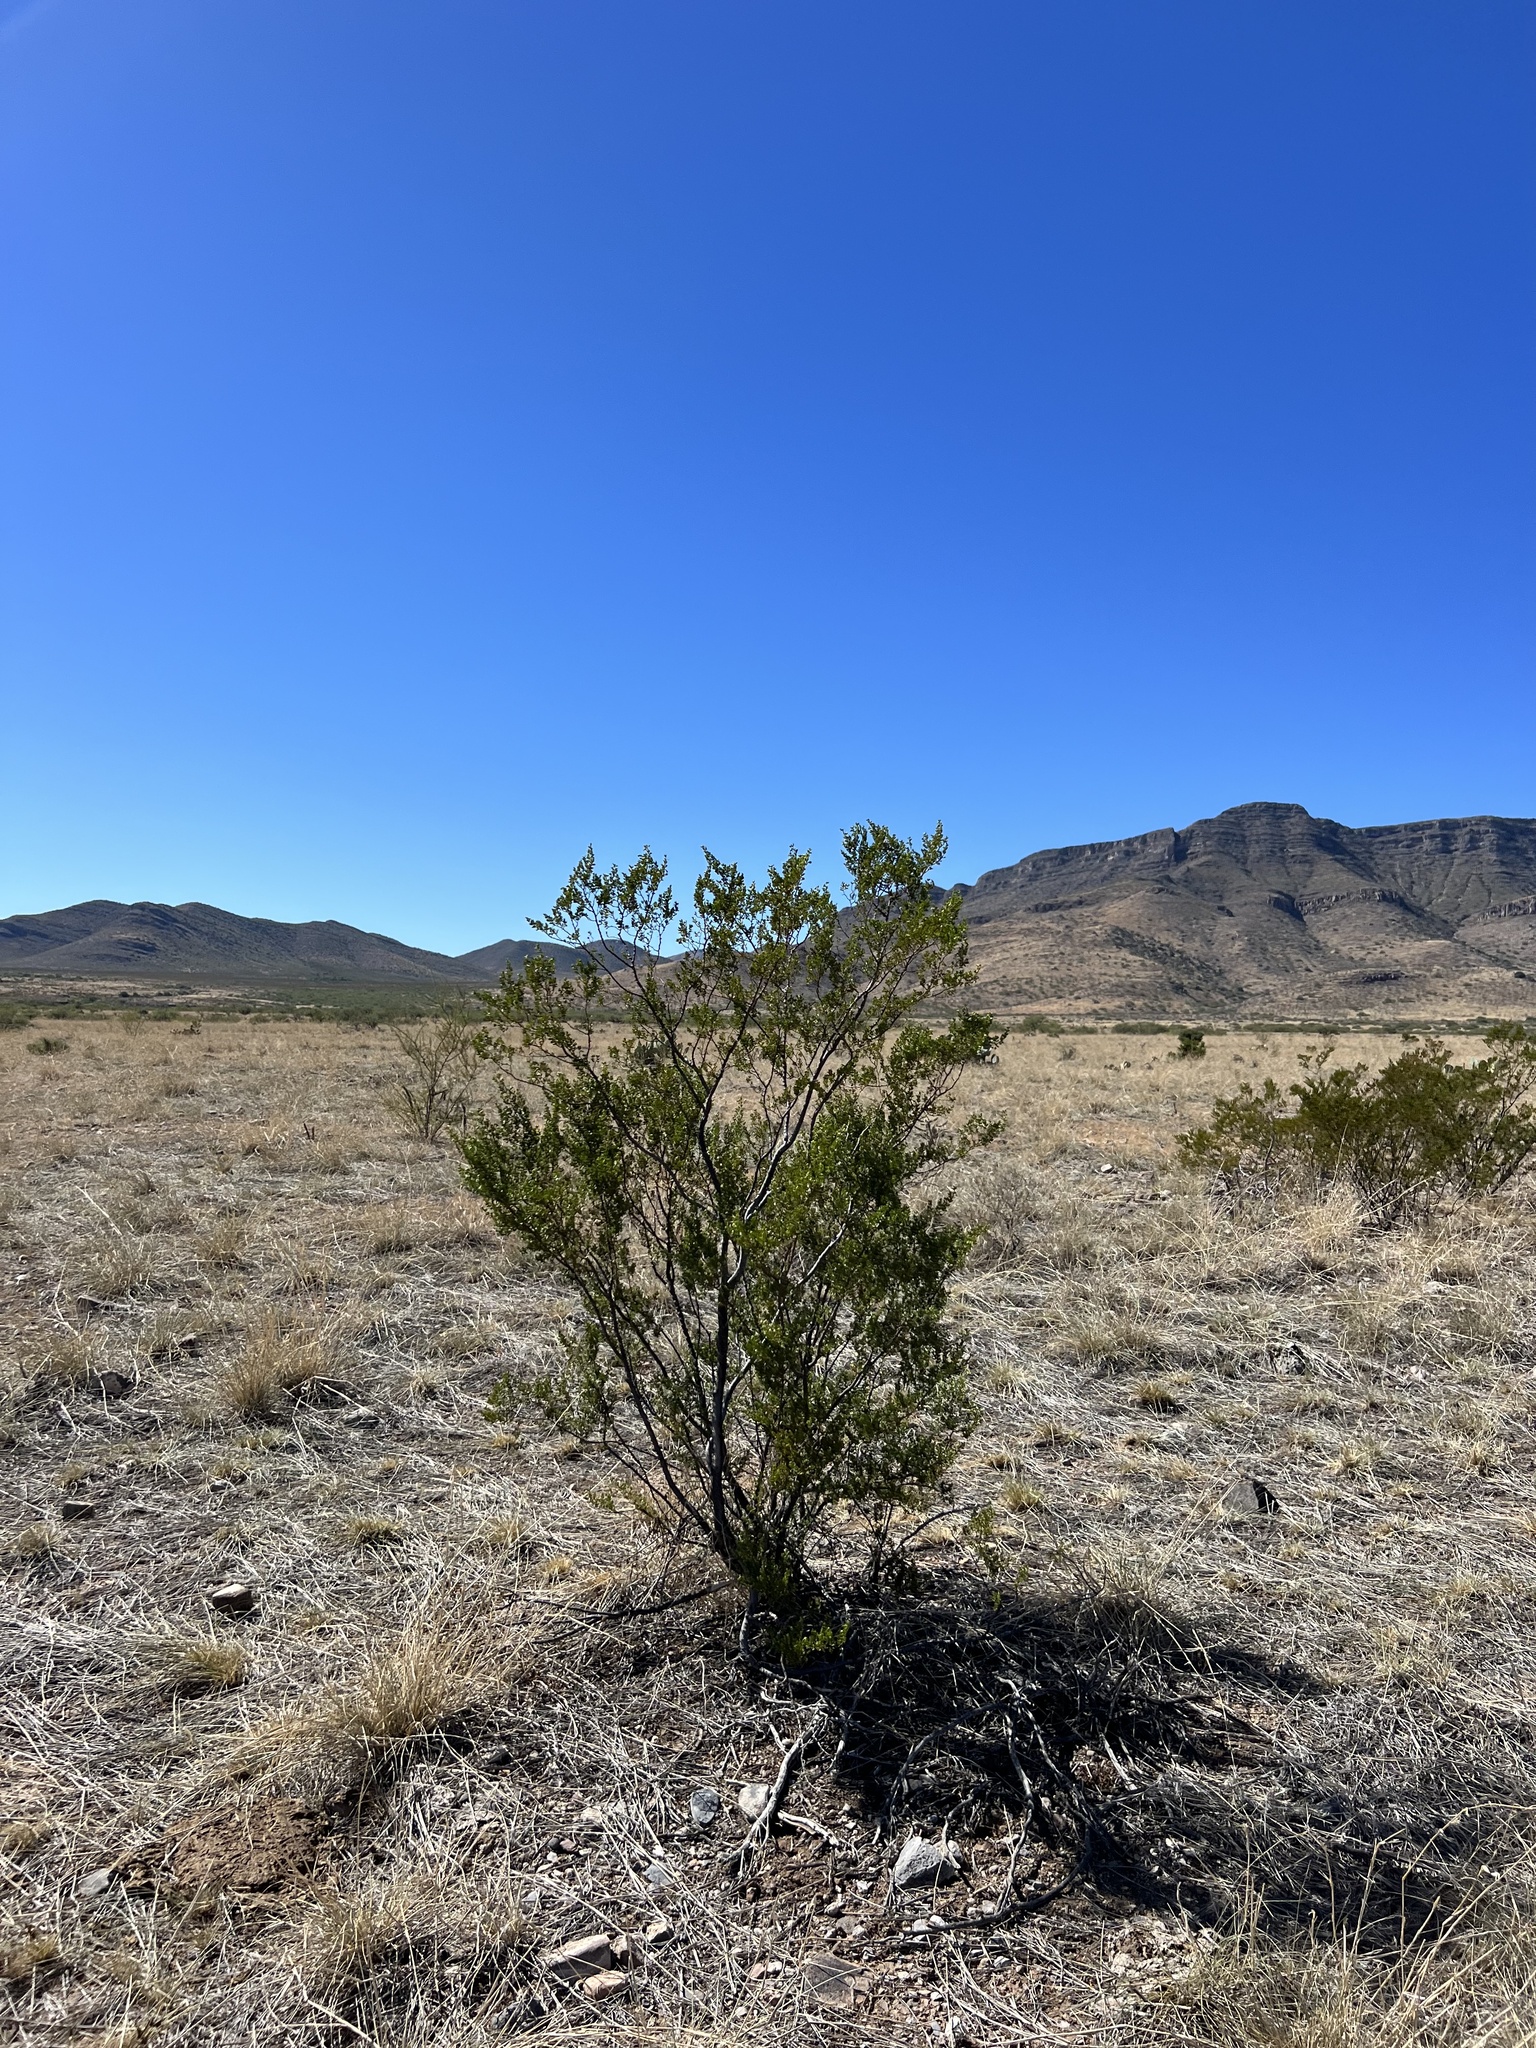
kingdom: Plantae
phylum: Tracheophyta
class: Magnoliopsida
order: Zygophyllales
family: Zygophyllaceae
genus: Larrea
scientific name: Larrea tridentata
